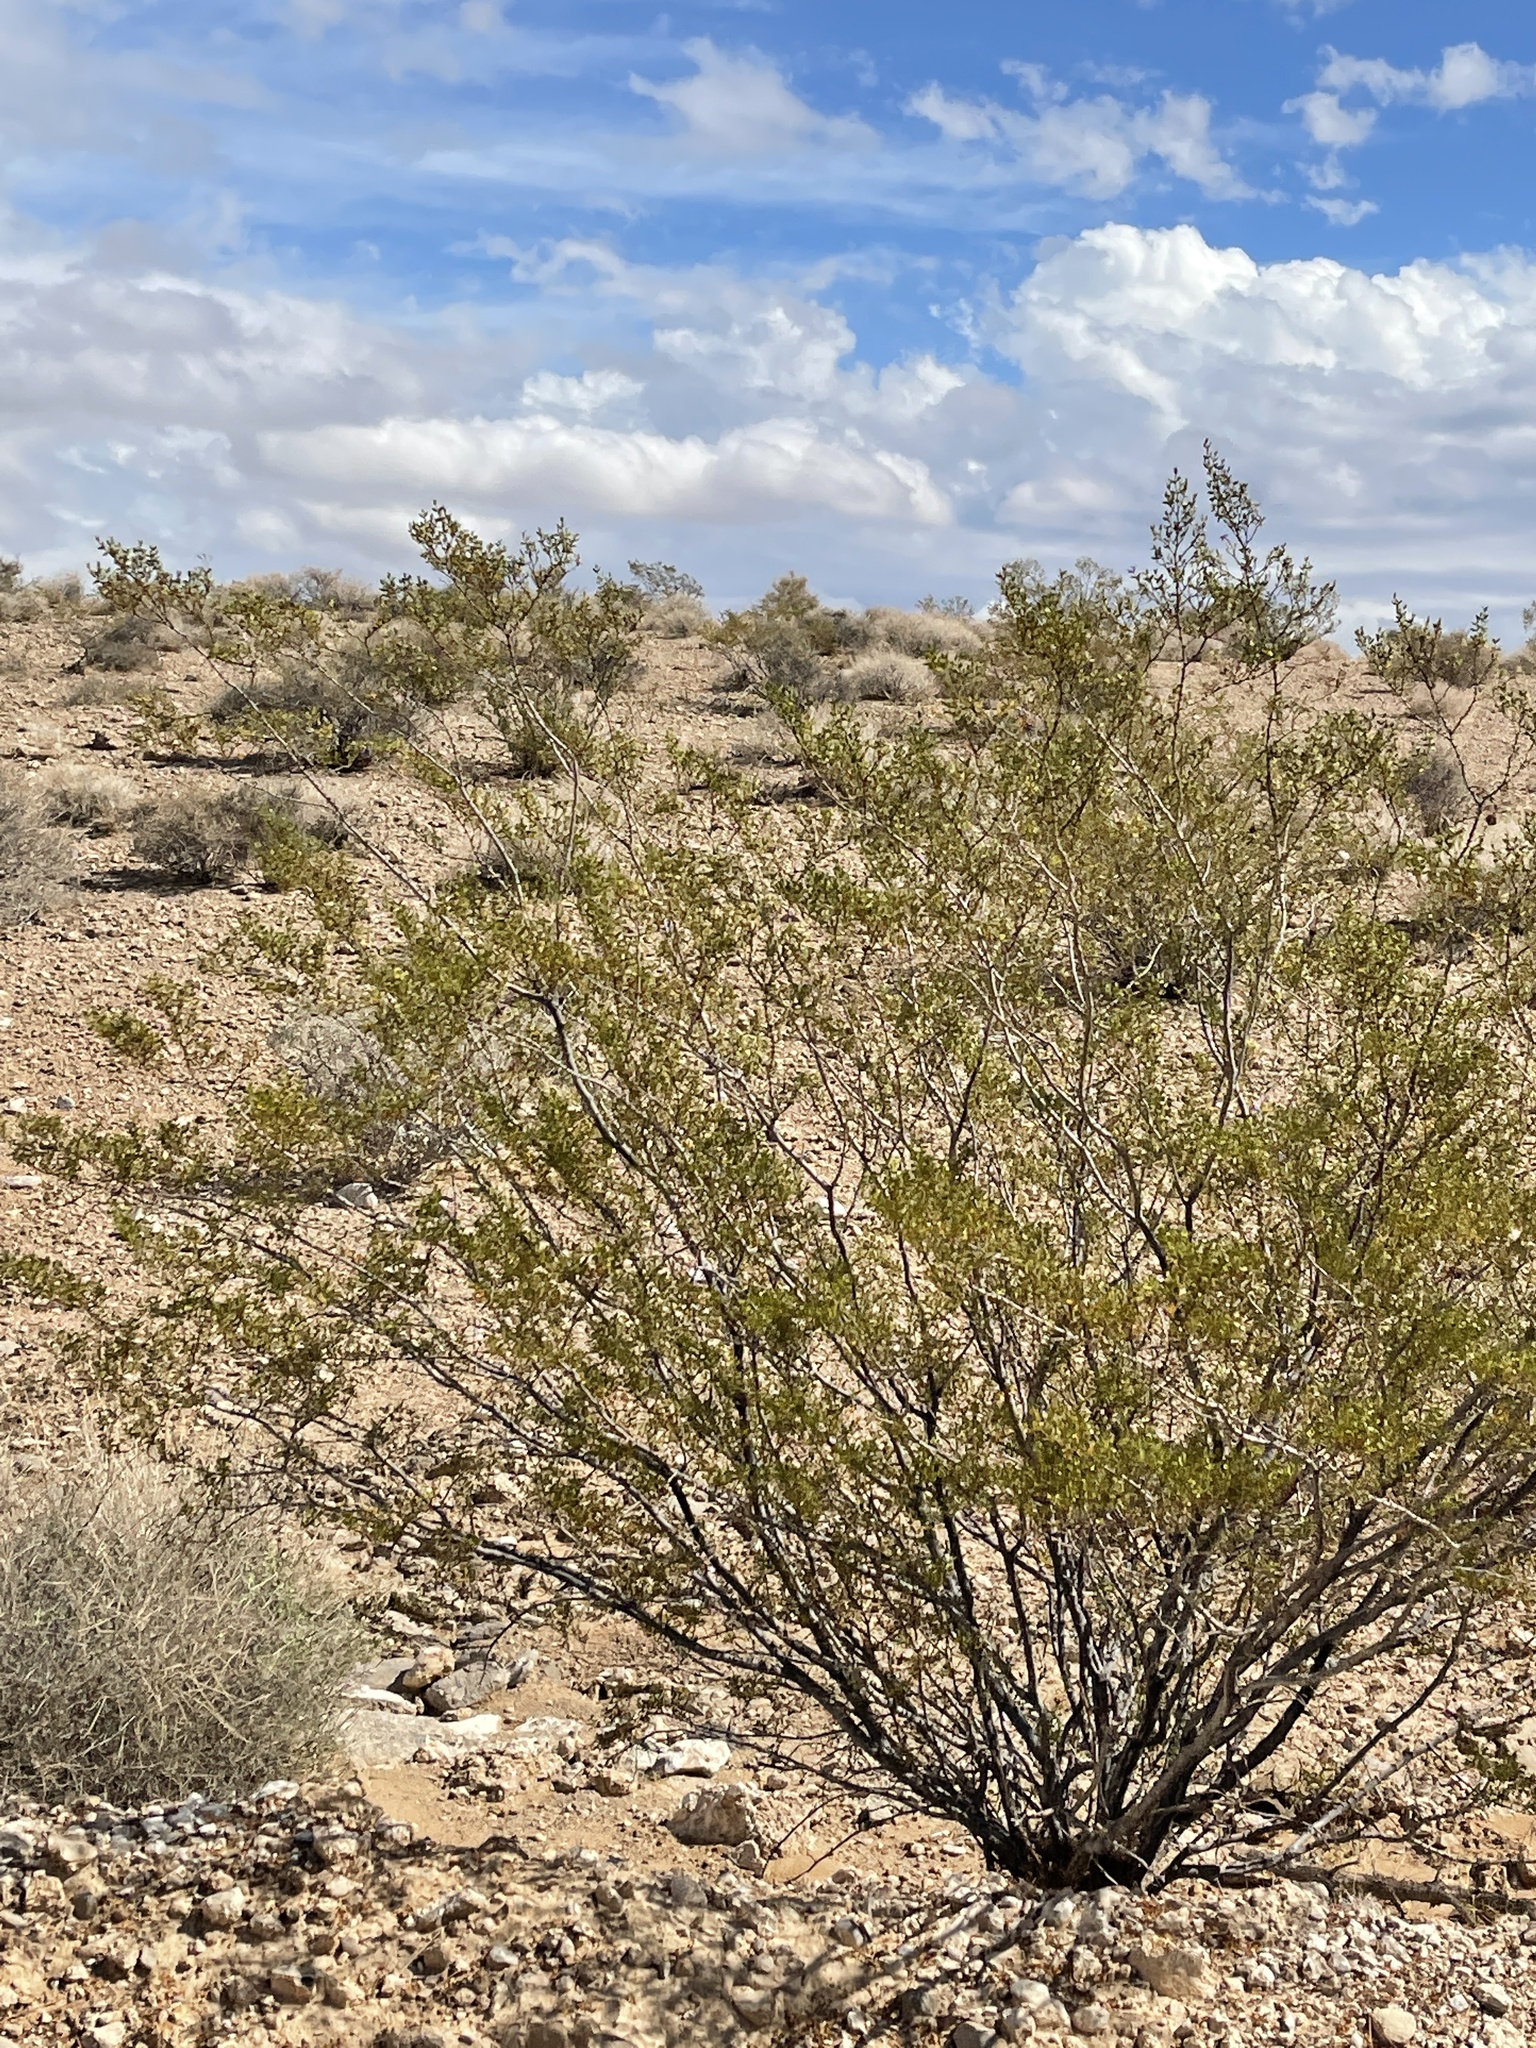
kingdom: Plantae
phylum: Tracheophyta
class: Magnoliopsida
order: Zygophyllales
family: Zygophyllaceae
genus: Larrea
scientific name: Larrea tridentata
